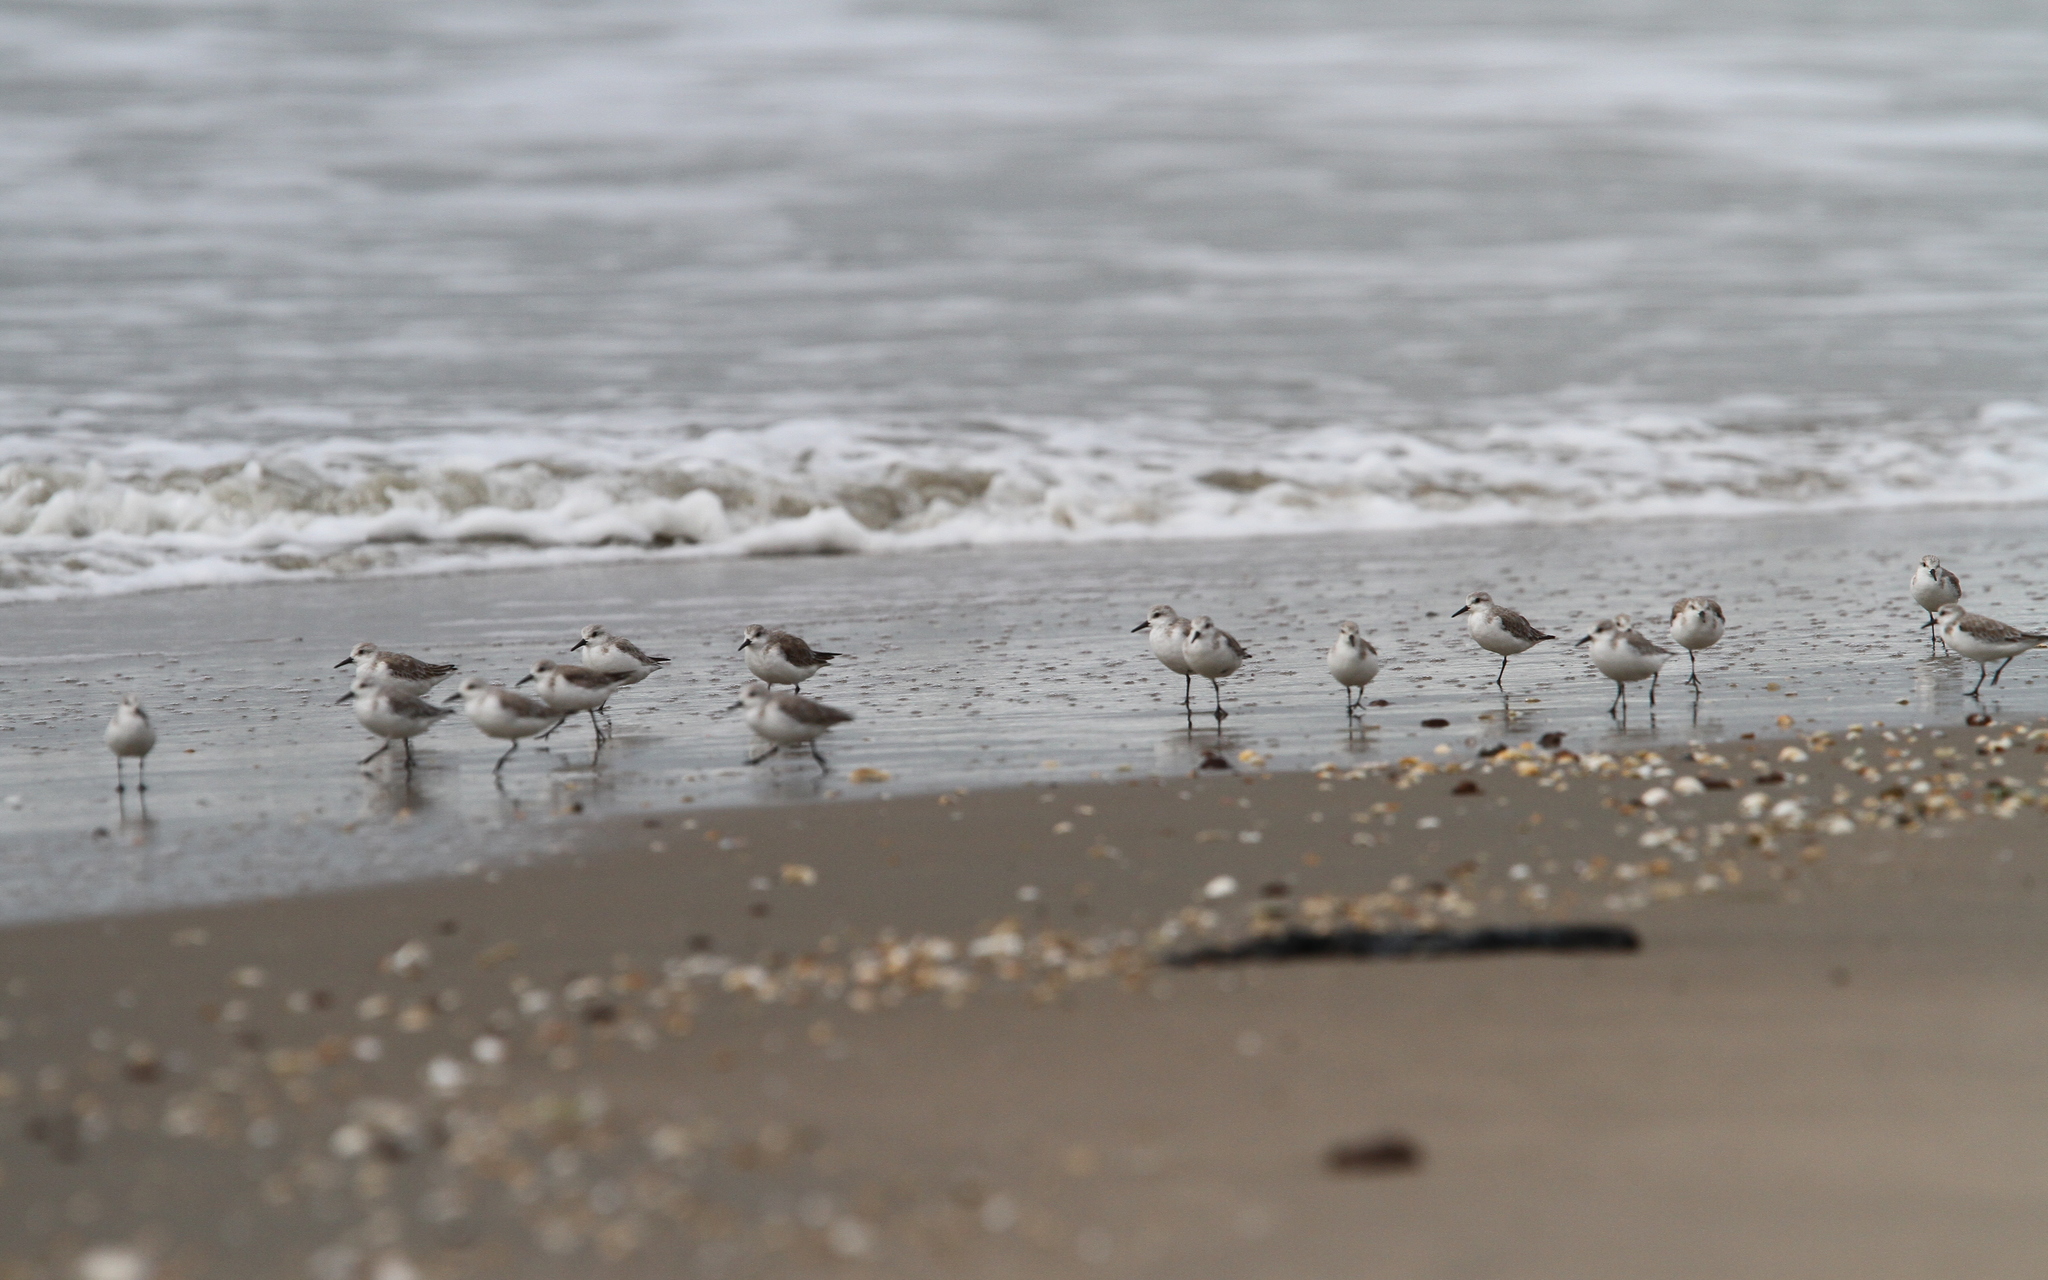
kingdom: Animalia
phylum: Chordata
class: Aves
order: Charadriiformes
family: Scolopacidae
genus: Calidris
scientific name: Calidris alba
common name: Sanderling
